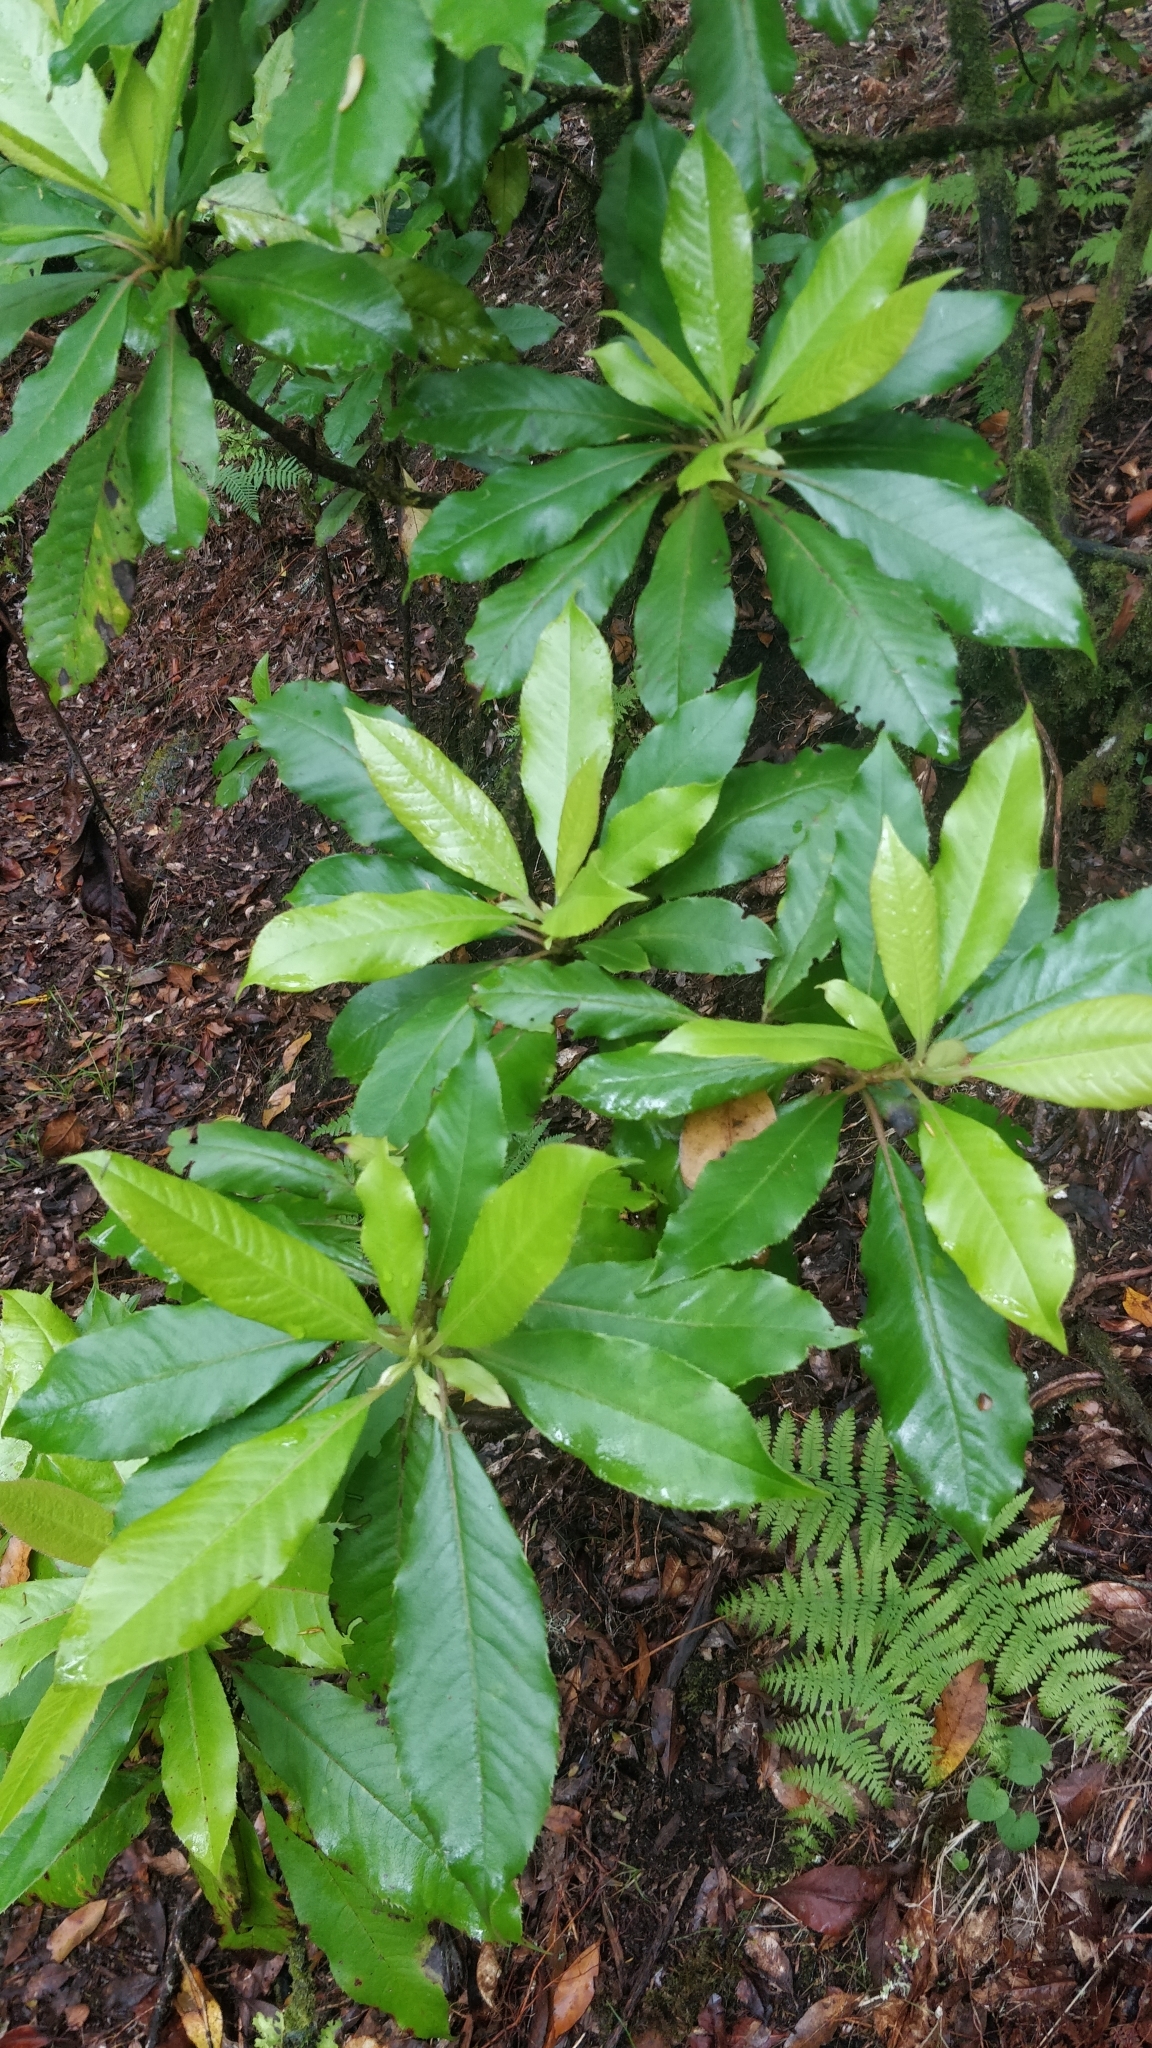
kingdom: Plantae
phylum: Tracheophyta
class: Magnoliopsida
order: Ericales
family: Clethraceae
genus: Clethra
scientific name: Clethra arborea
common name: Lily-of-the-valley-tree
